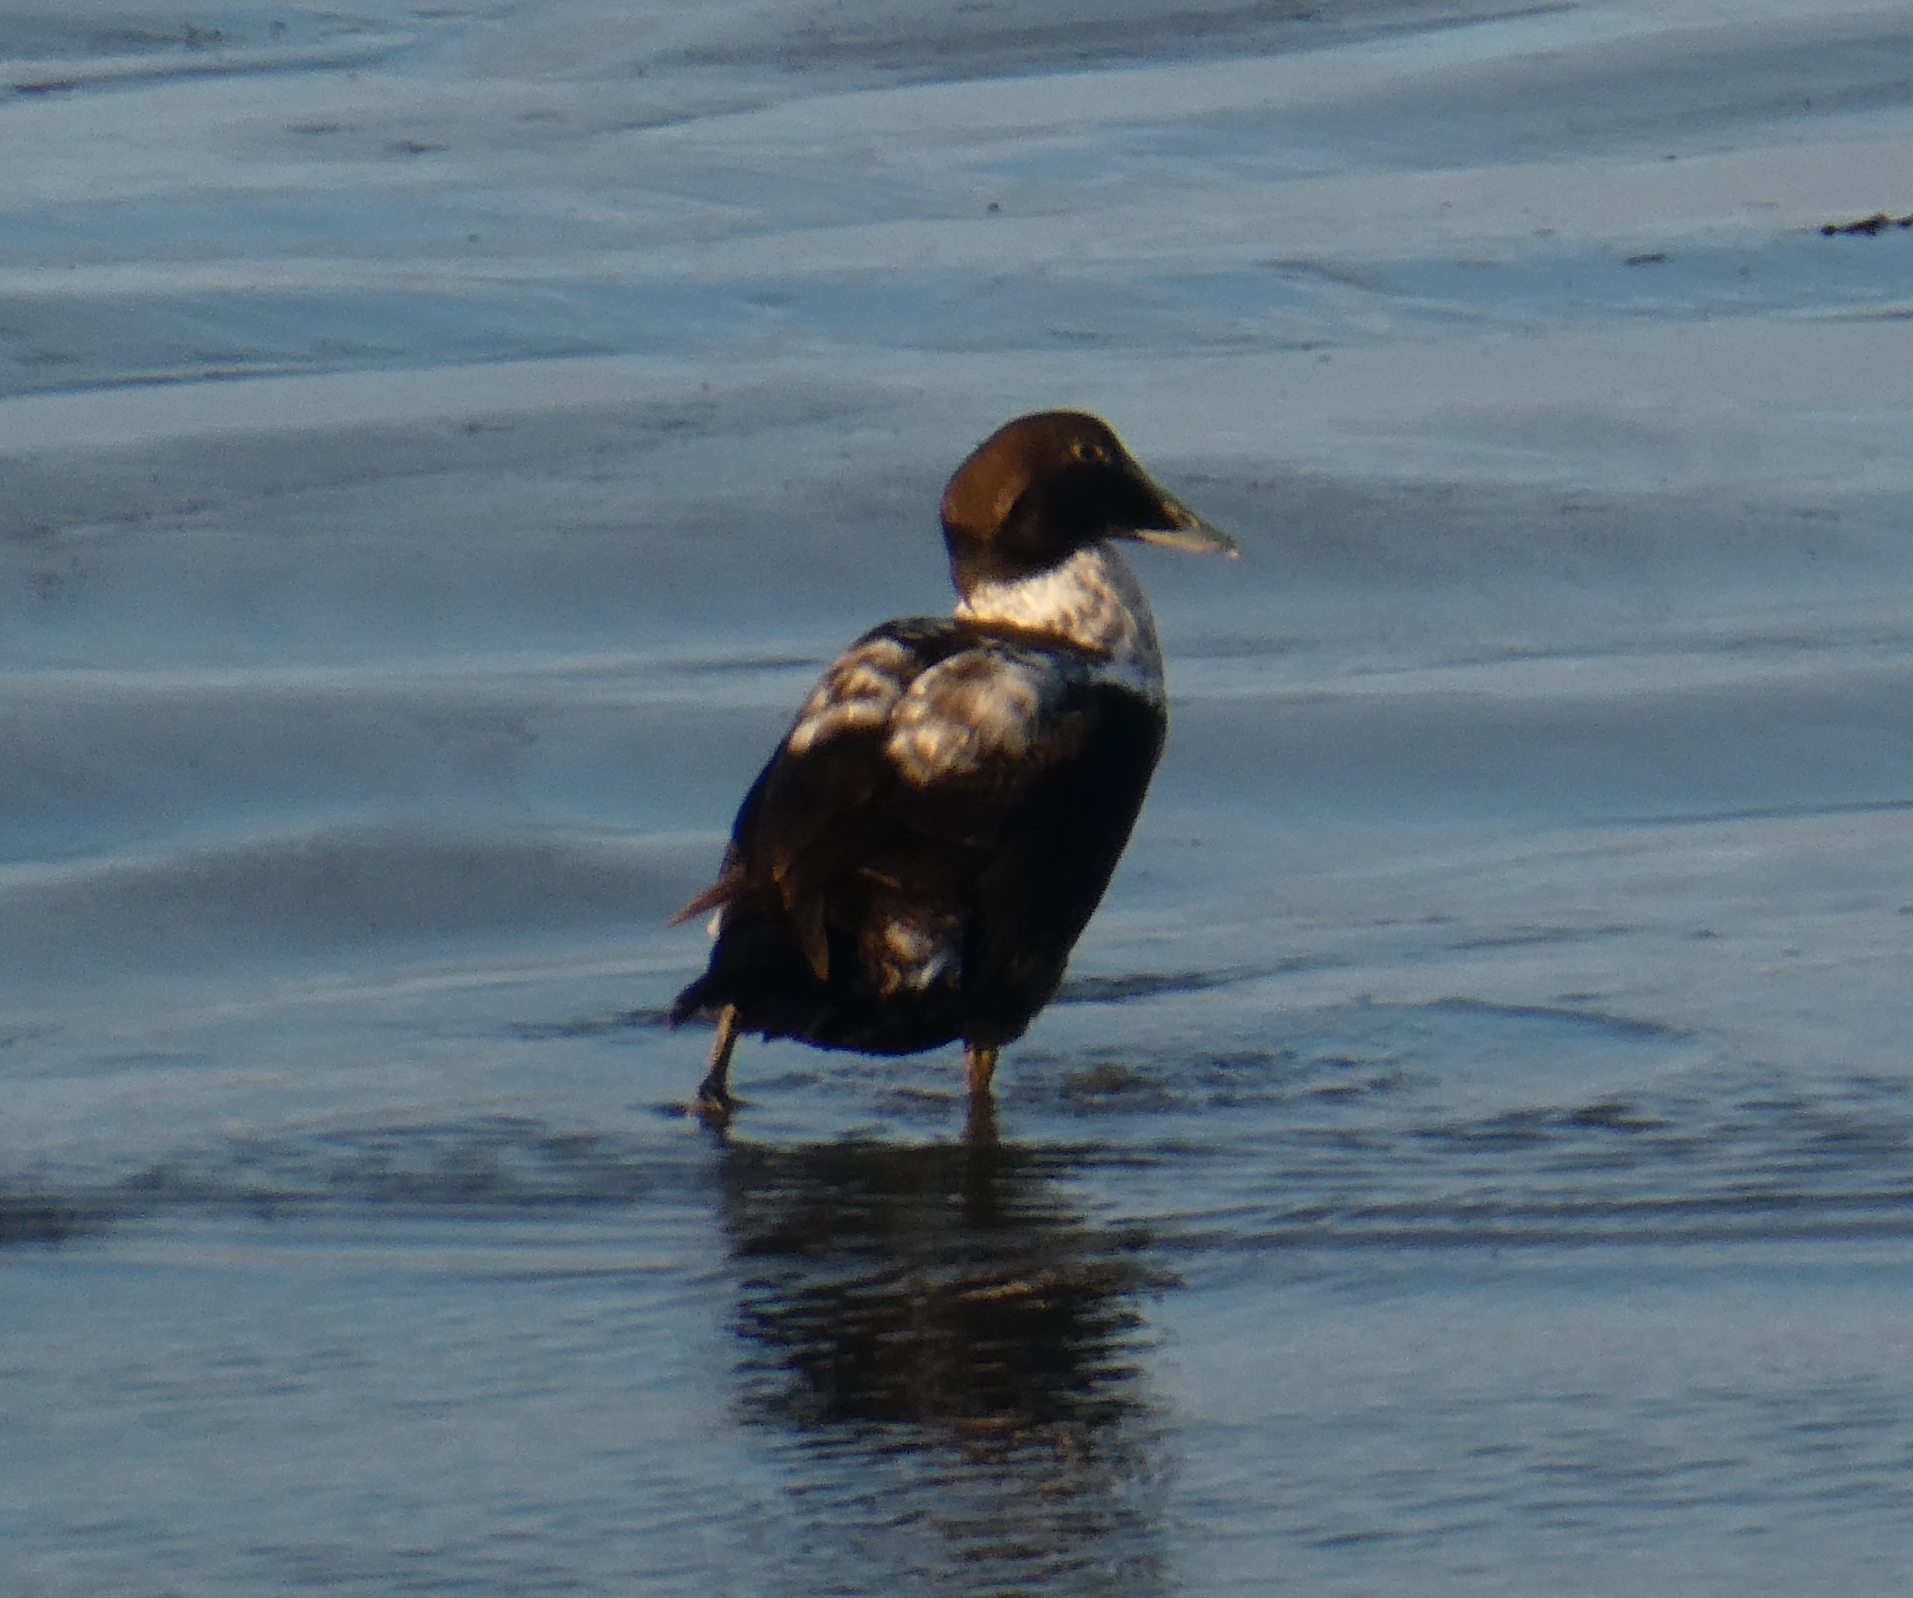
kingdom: Animalia
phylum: Chordata
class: Aves
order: Anseriformes
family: Anatidae
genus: Somateria
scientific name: Somateria mollissima
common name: Common eider
